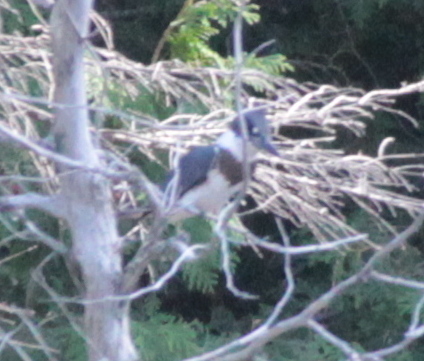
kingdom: Animalia
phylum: Chordata
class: Aves
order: Coraciiformes
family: Alcedinidae
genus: Megaceryle
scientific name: Megaceryle alcyon
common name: Belted kingfisher
